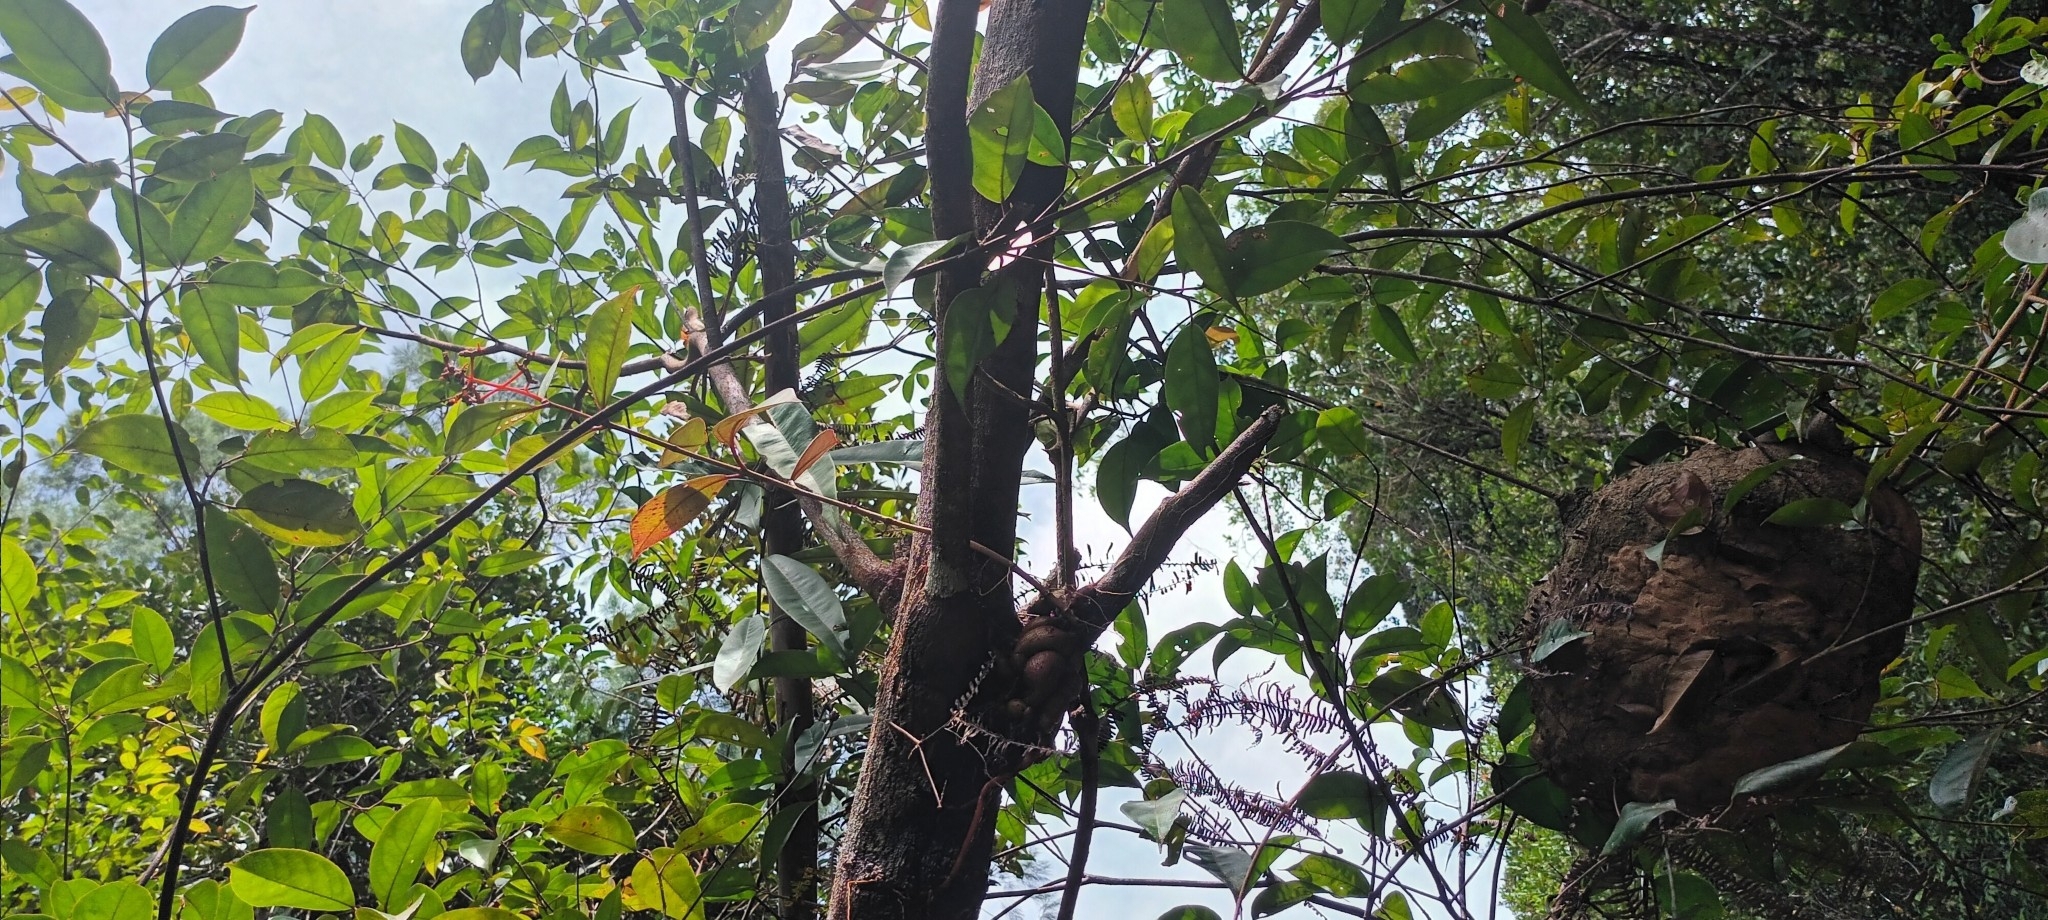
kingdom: Plantae
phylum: Tracheophyta
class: Magnoliopsida
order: Myrtales
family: Melastomataceae
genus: Pachycentria
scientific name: Pachycentria constricta
